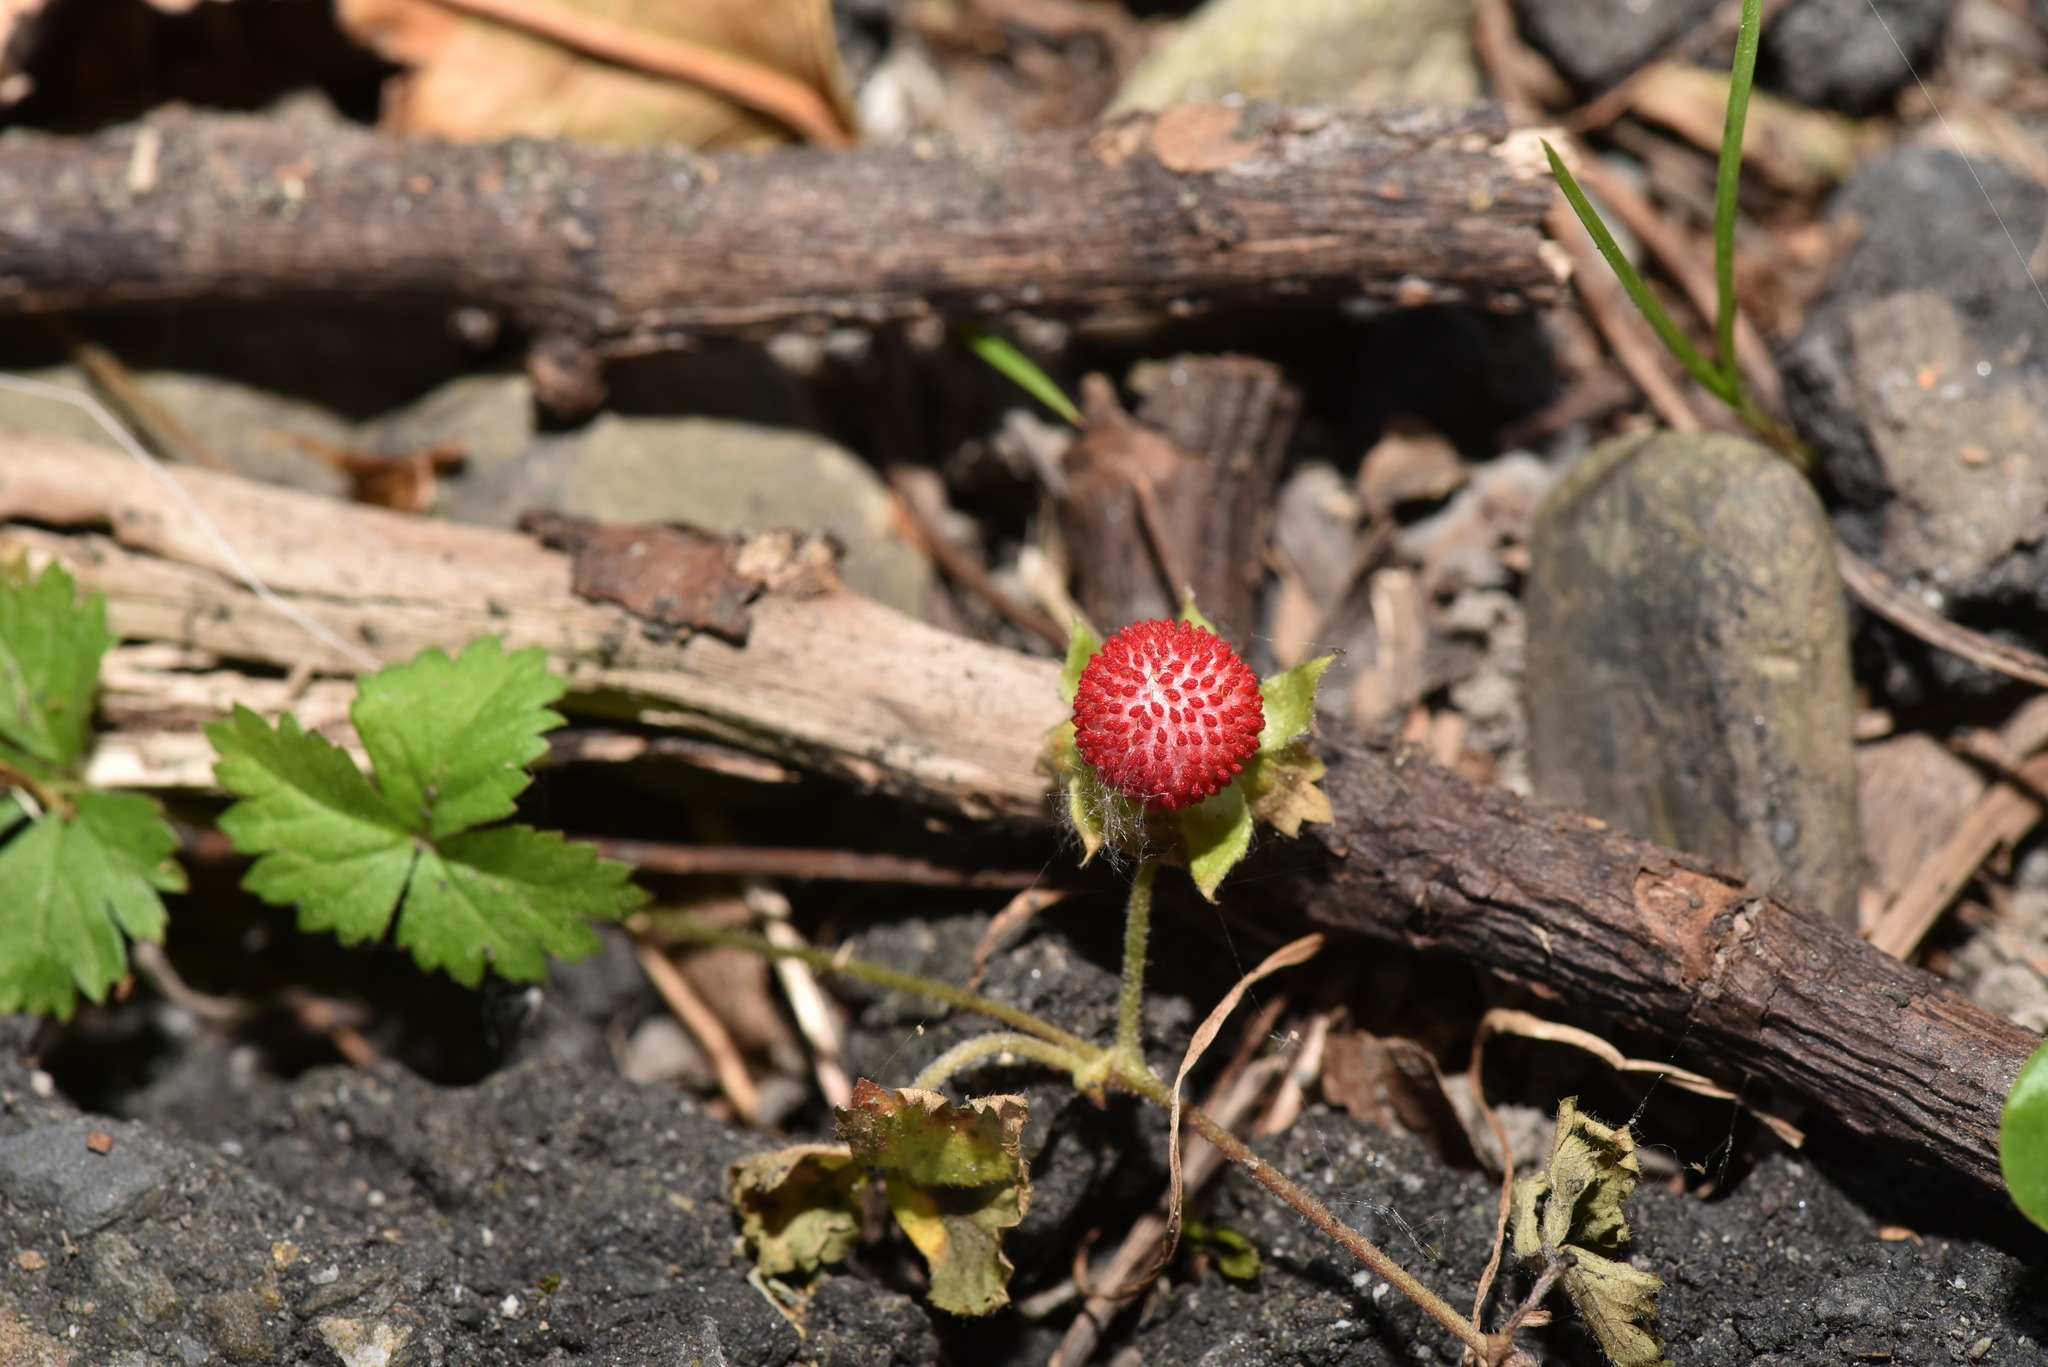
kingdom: Plantae
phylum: Tracheophyta
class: Magnoliopsida
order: Rosales
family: Rosaceae
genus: Potentilla
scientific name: Potentilla wallichiana
